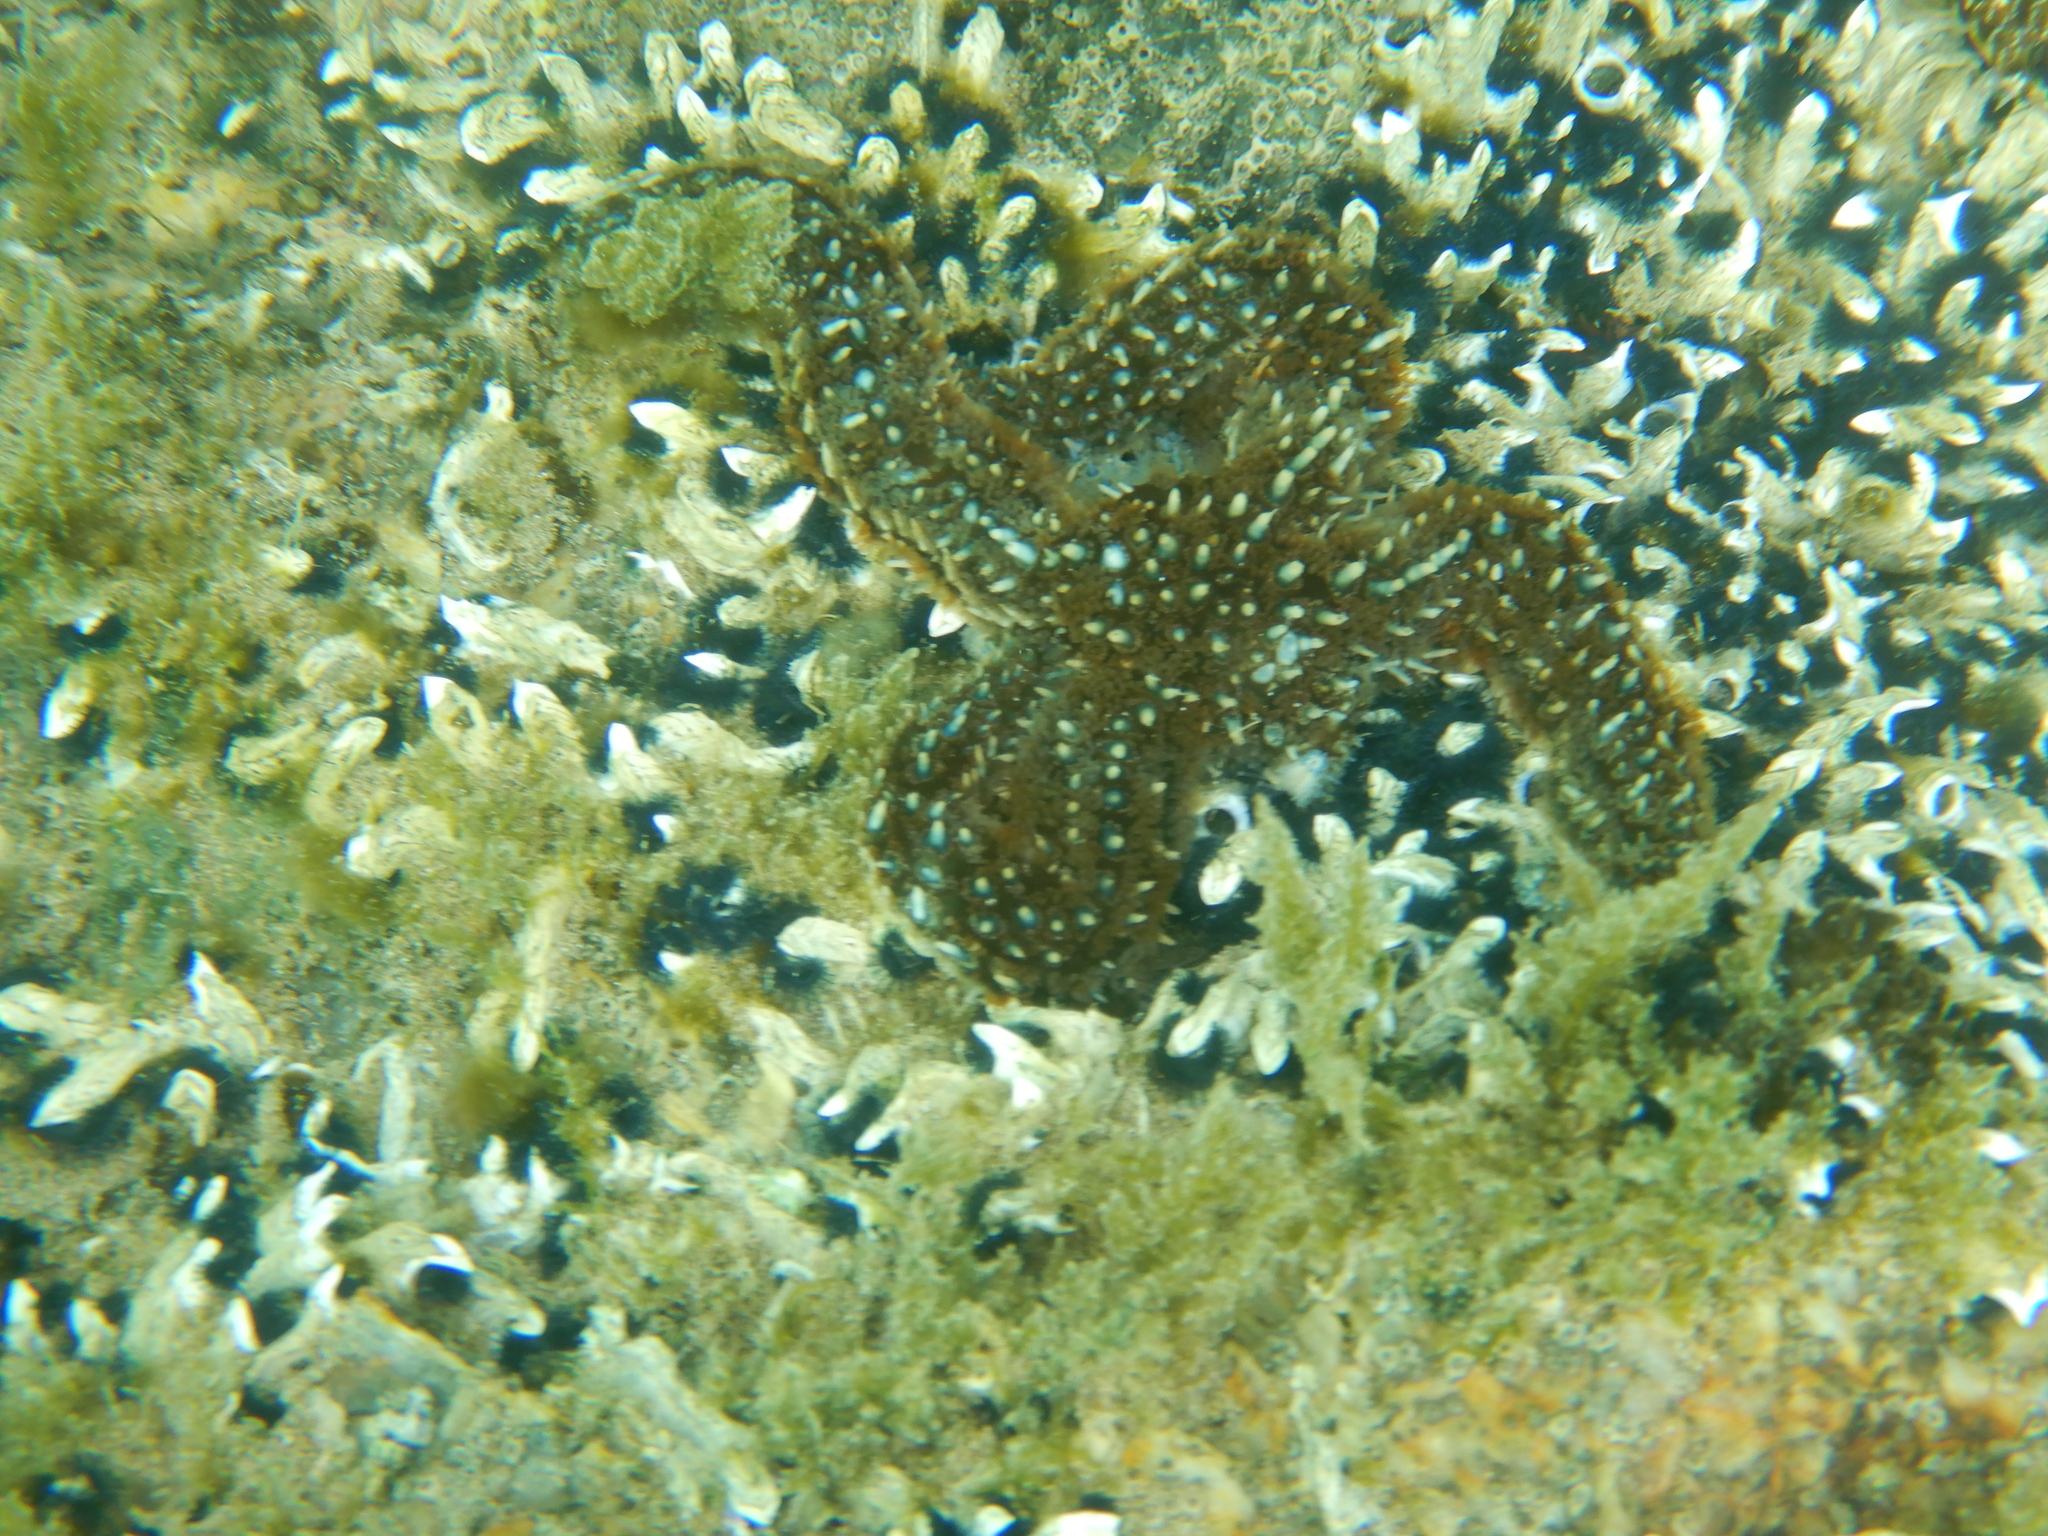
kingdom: Animalia
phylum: Echinodermata
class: Asteroidea
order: Forcipulatida
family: Asteriidae
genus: Coscinasterias
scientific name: Coscinasterias muricata
